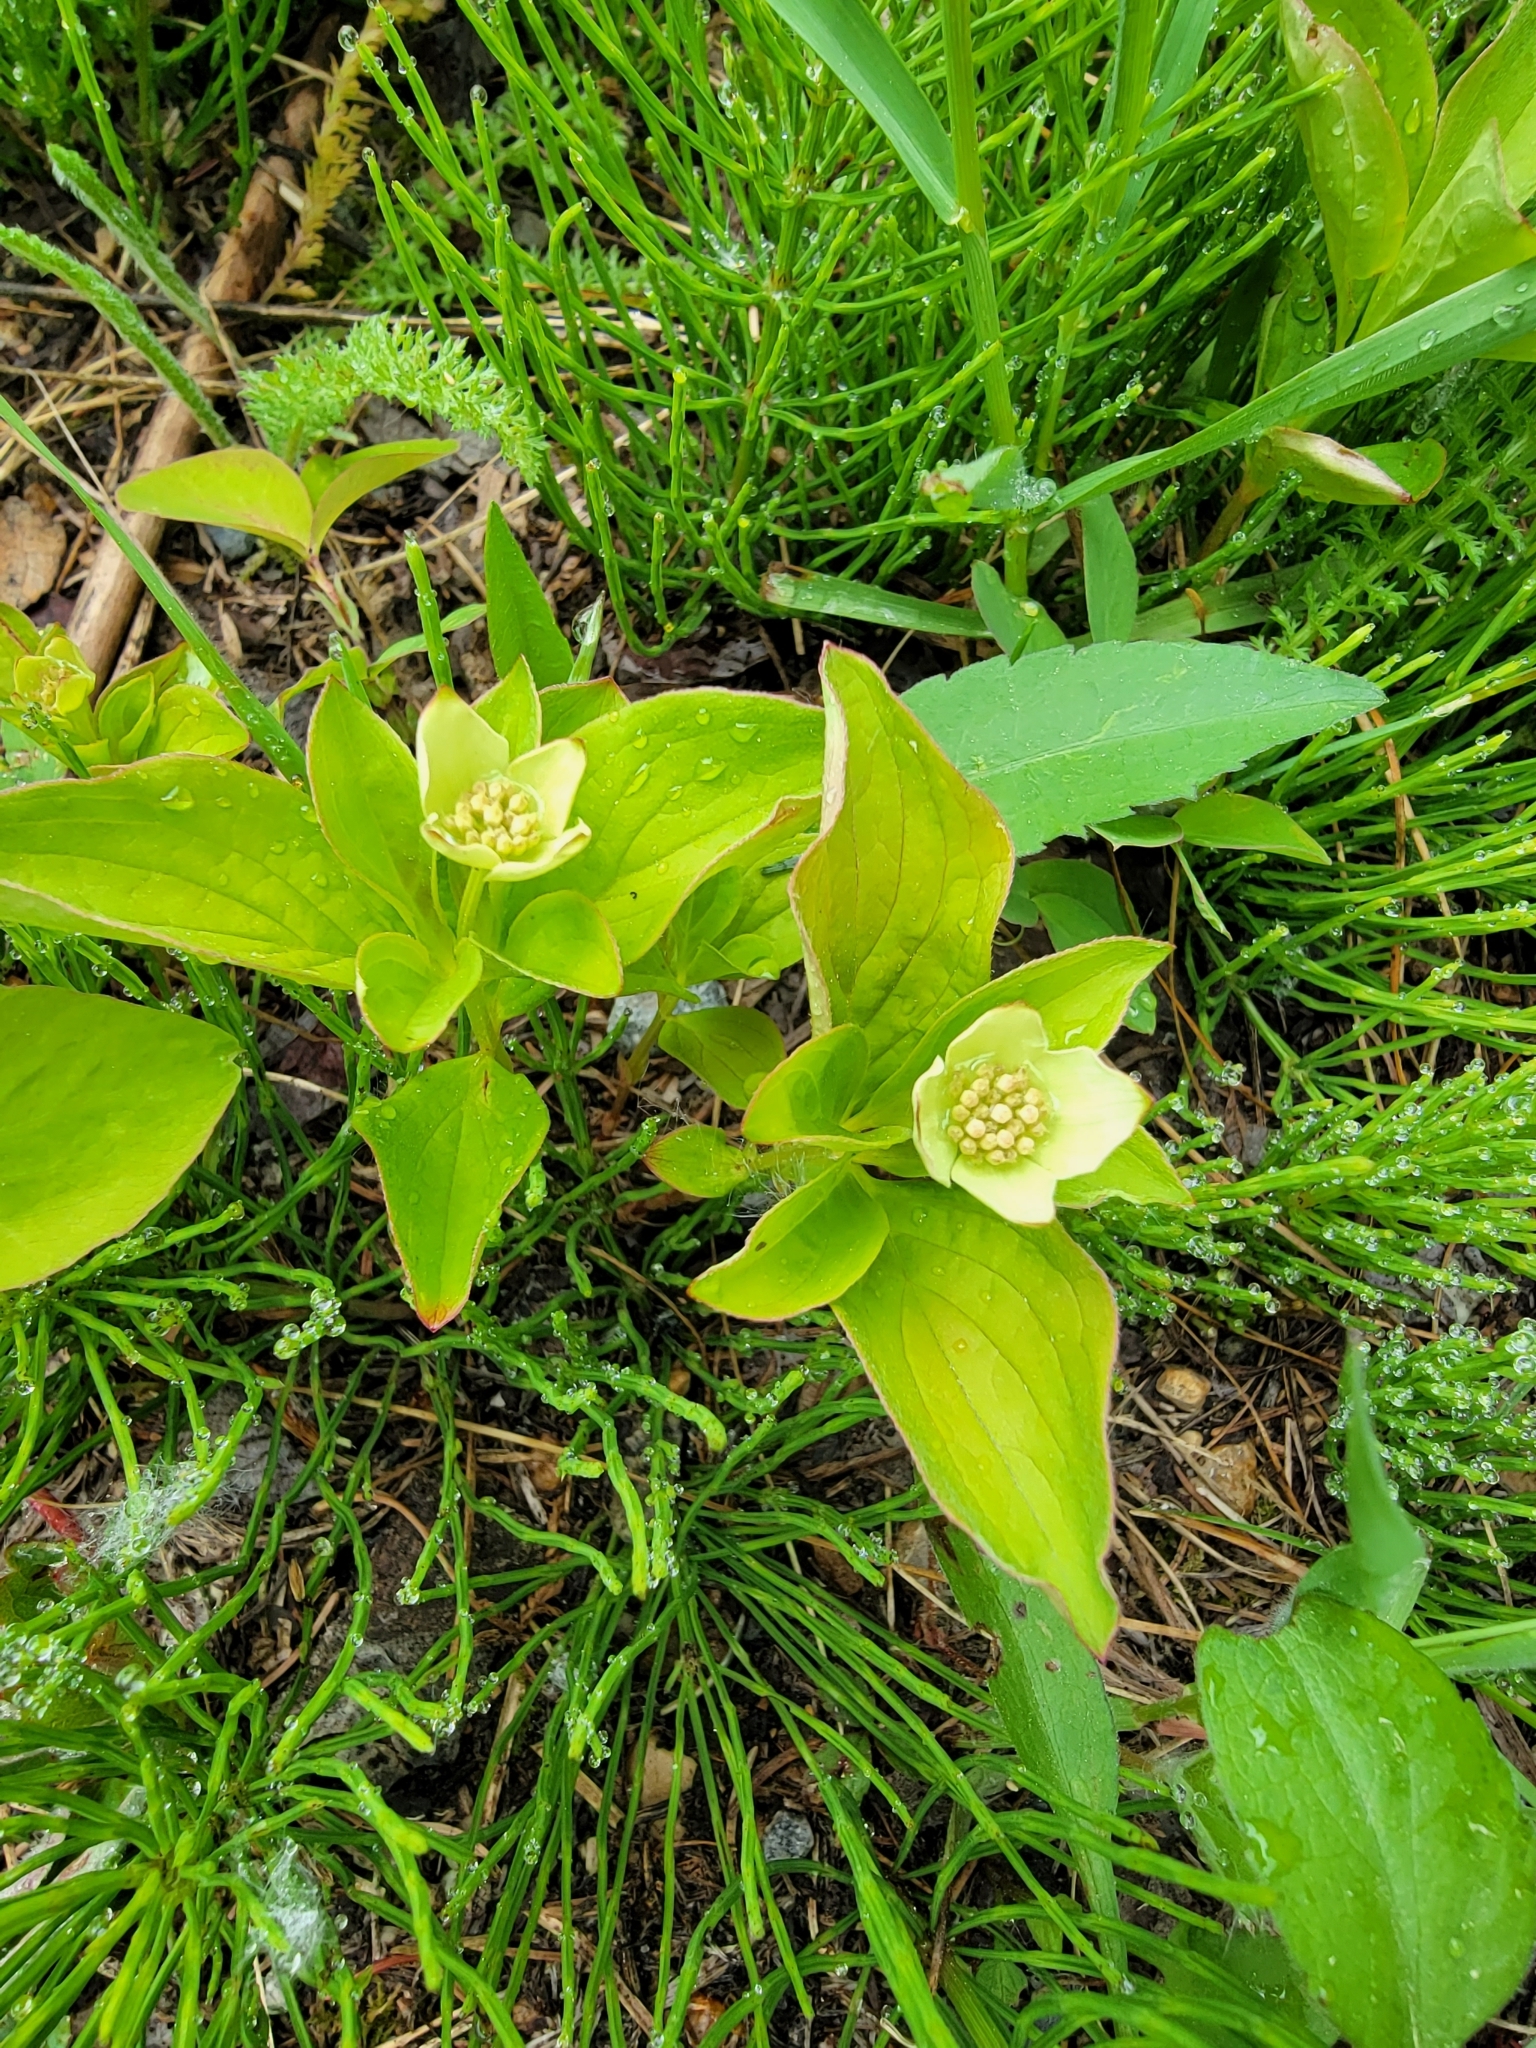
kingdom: Plantae
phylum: Tracheophyta
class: Magnoliopsida
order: Cornales
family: Cornaceae
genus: Cornus
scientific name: Cornus canadensis
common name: Creeping dogwood
